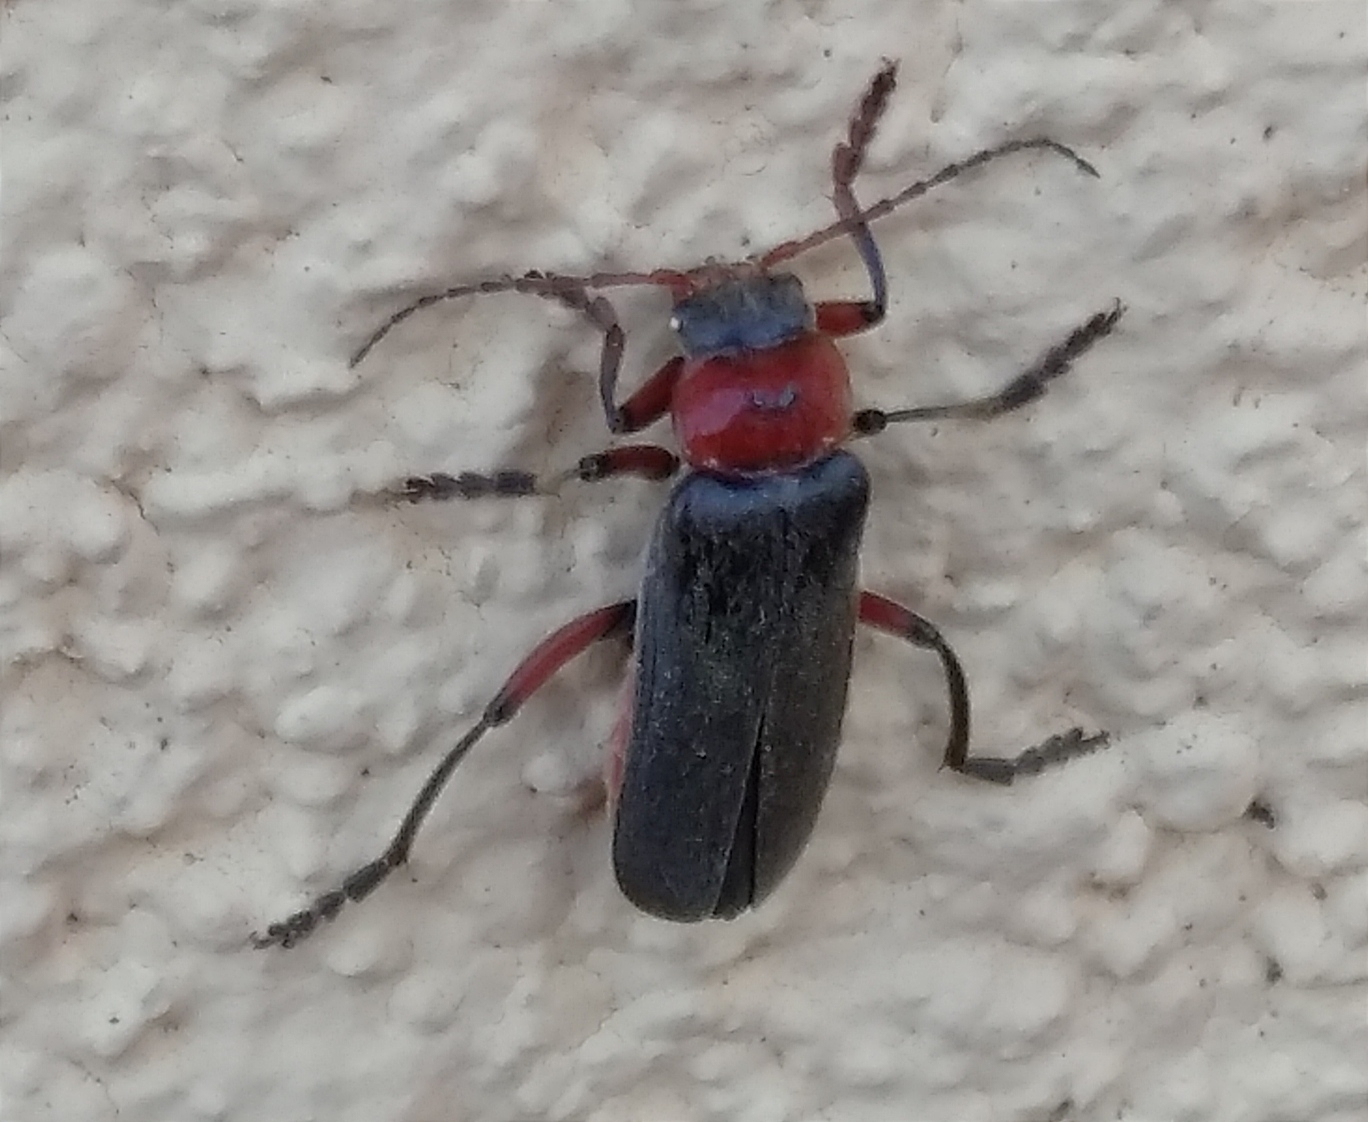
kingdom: Animalia
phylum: Arthropoda
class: Insecta
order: Coleoptera
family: Cantharidae
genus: Cantharis
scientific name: Cantharis rustica
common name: Soldier beetle
